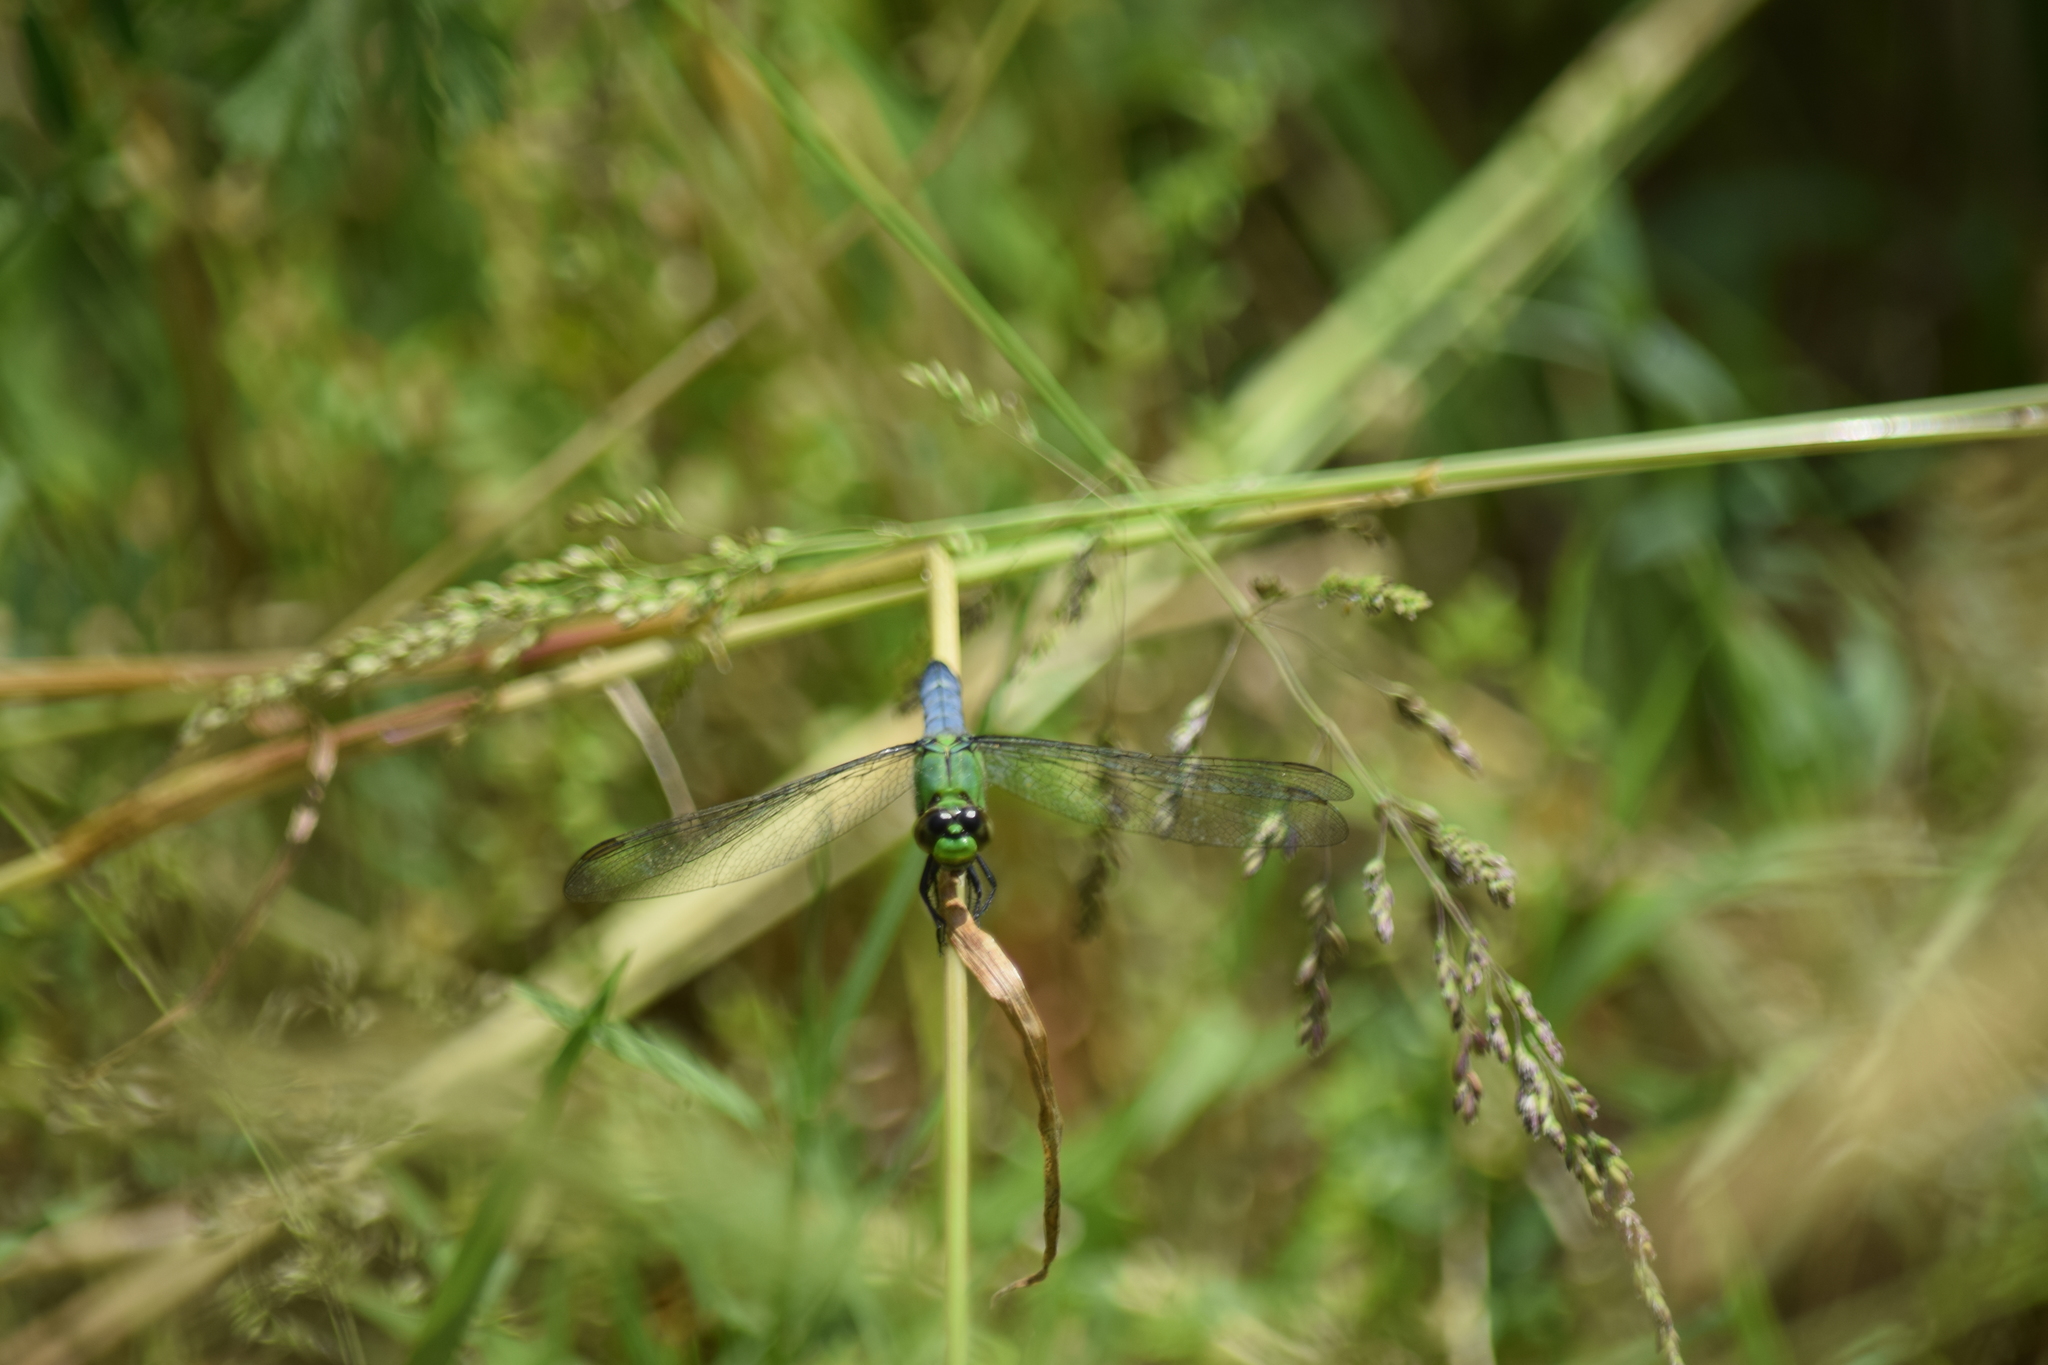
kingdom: Animalia
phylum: Arthropoda
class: Insecta
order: Odonata
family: Libellulidae
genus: Erythemis
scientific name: Erythemis simplicicollis
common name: Eastern pondhawk
